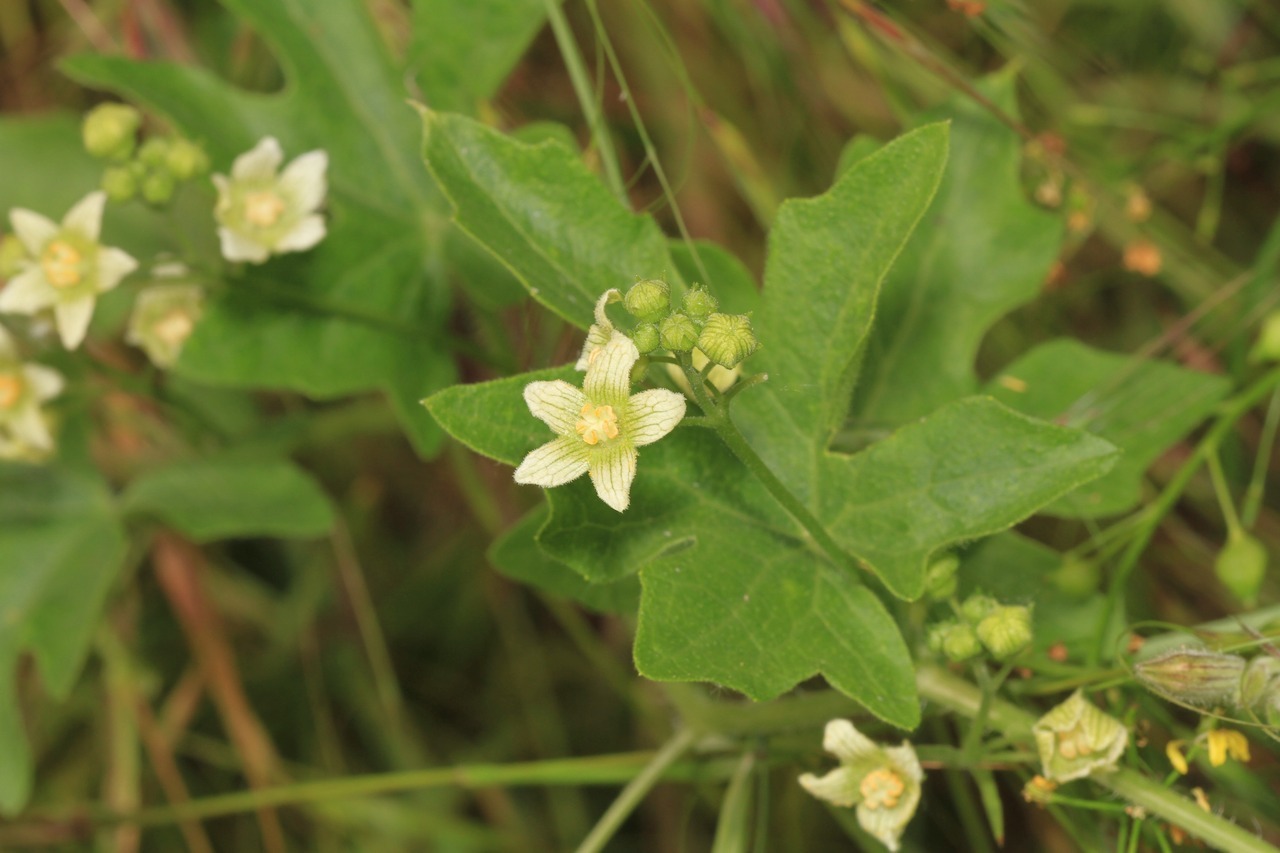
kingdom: Plantae
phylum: Tracheophyta
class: Magnoliopsida
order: Cucurbitales
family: Cucurbitaceae
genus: Bryonia
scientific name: Bryonia dioica
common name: White bryony
